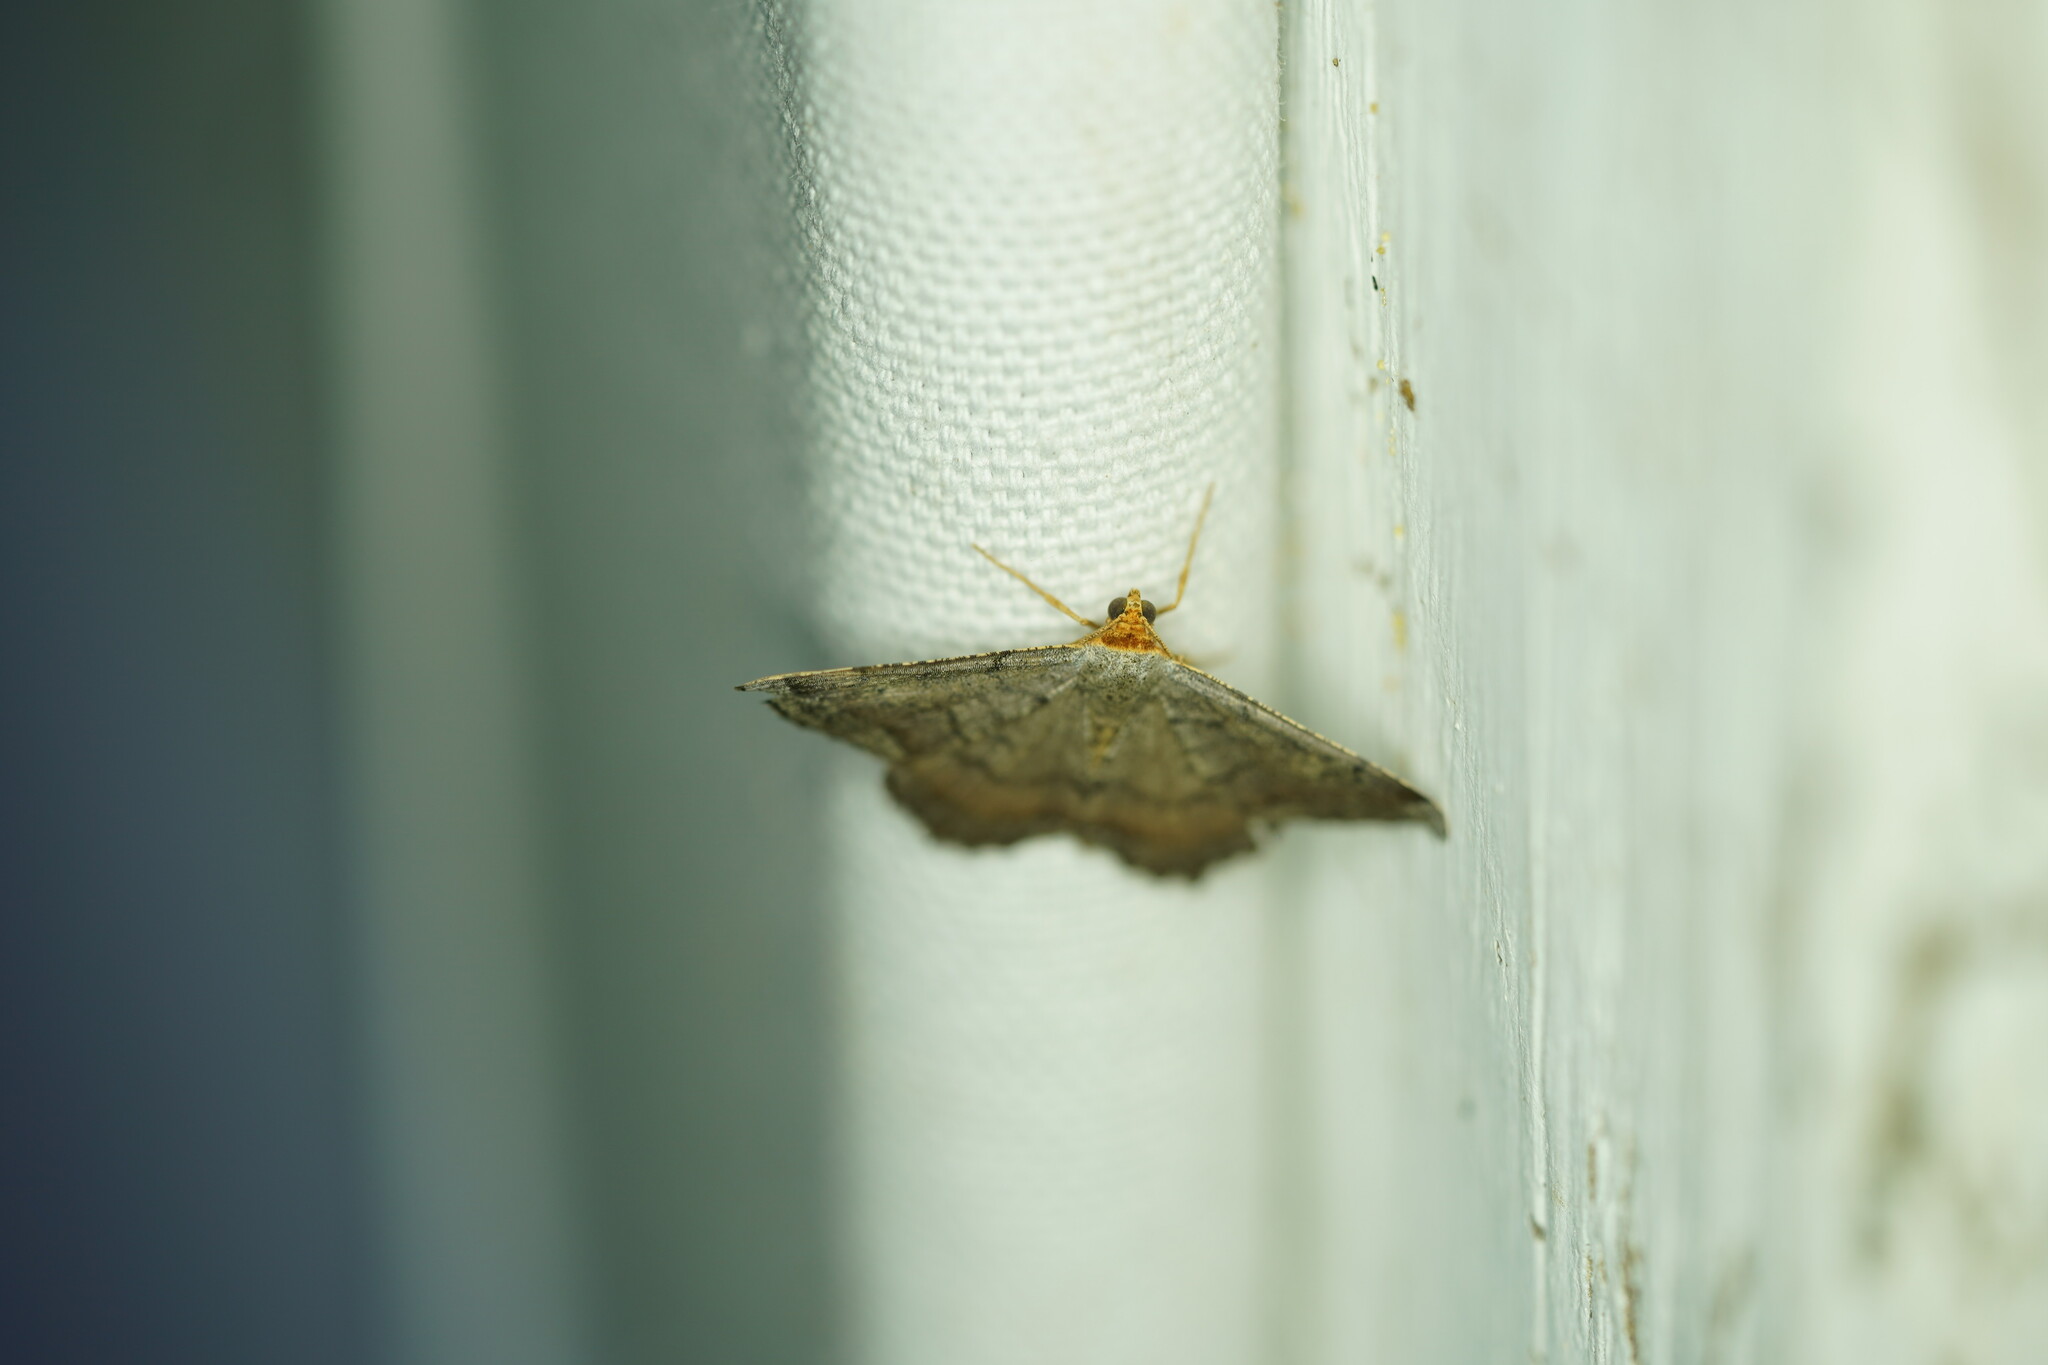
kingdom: Animalia
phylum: Arthropoda
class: Insecta
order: Lepidoptera
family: Geometridae
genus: Macaria
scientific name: Macaria transitaria
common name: Blurry chocolate angle
